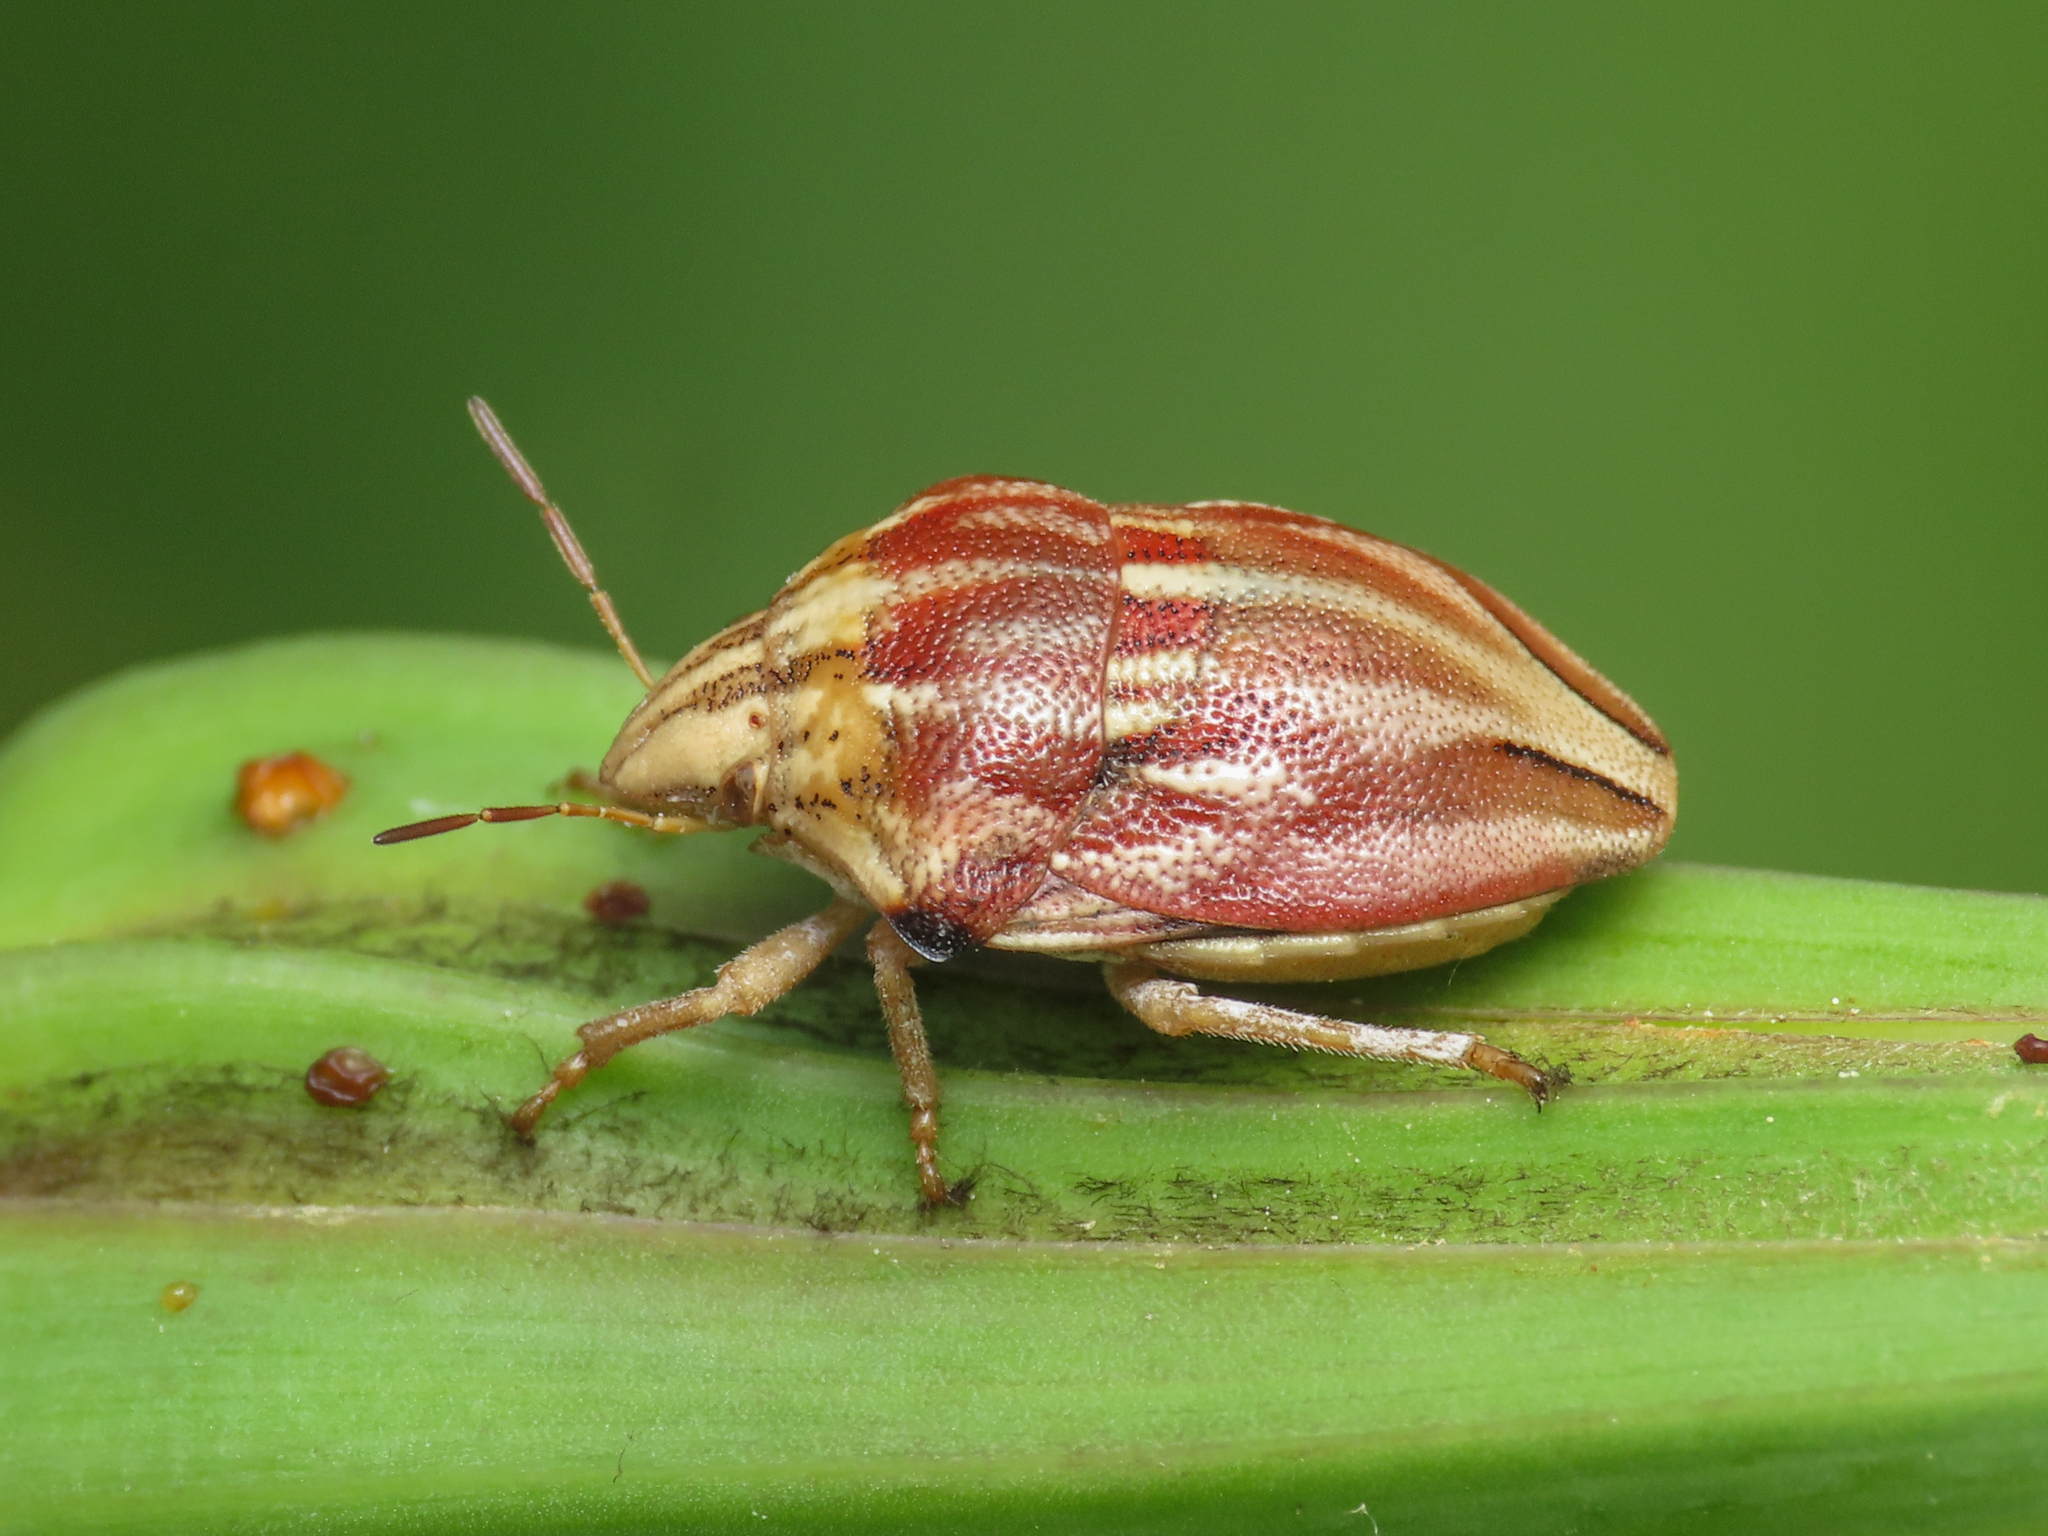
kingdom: Animalia
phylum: Arthropoda
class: Insecta
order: Hemiptera
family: Scutelleridae
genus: Odontotarsus
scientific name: Odontotarsus purpureolineatus
